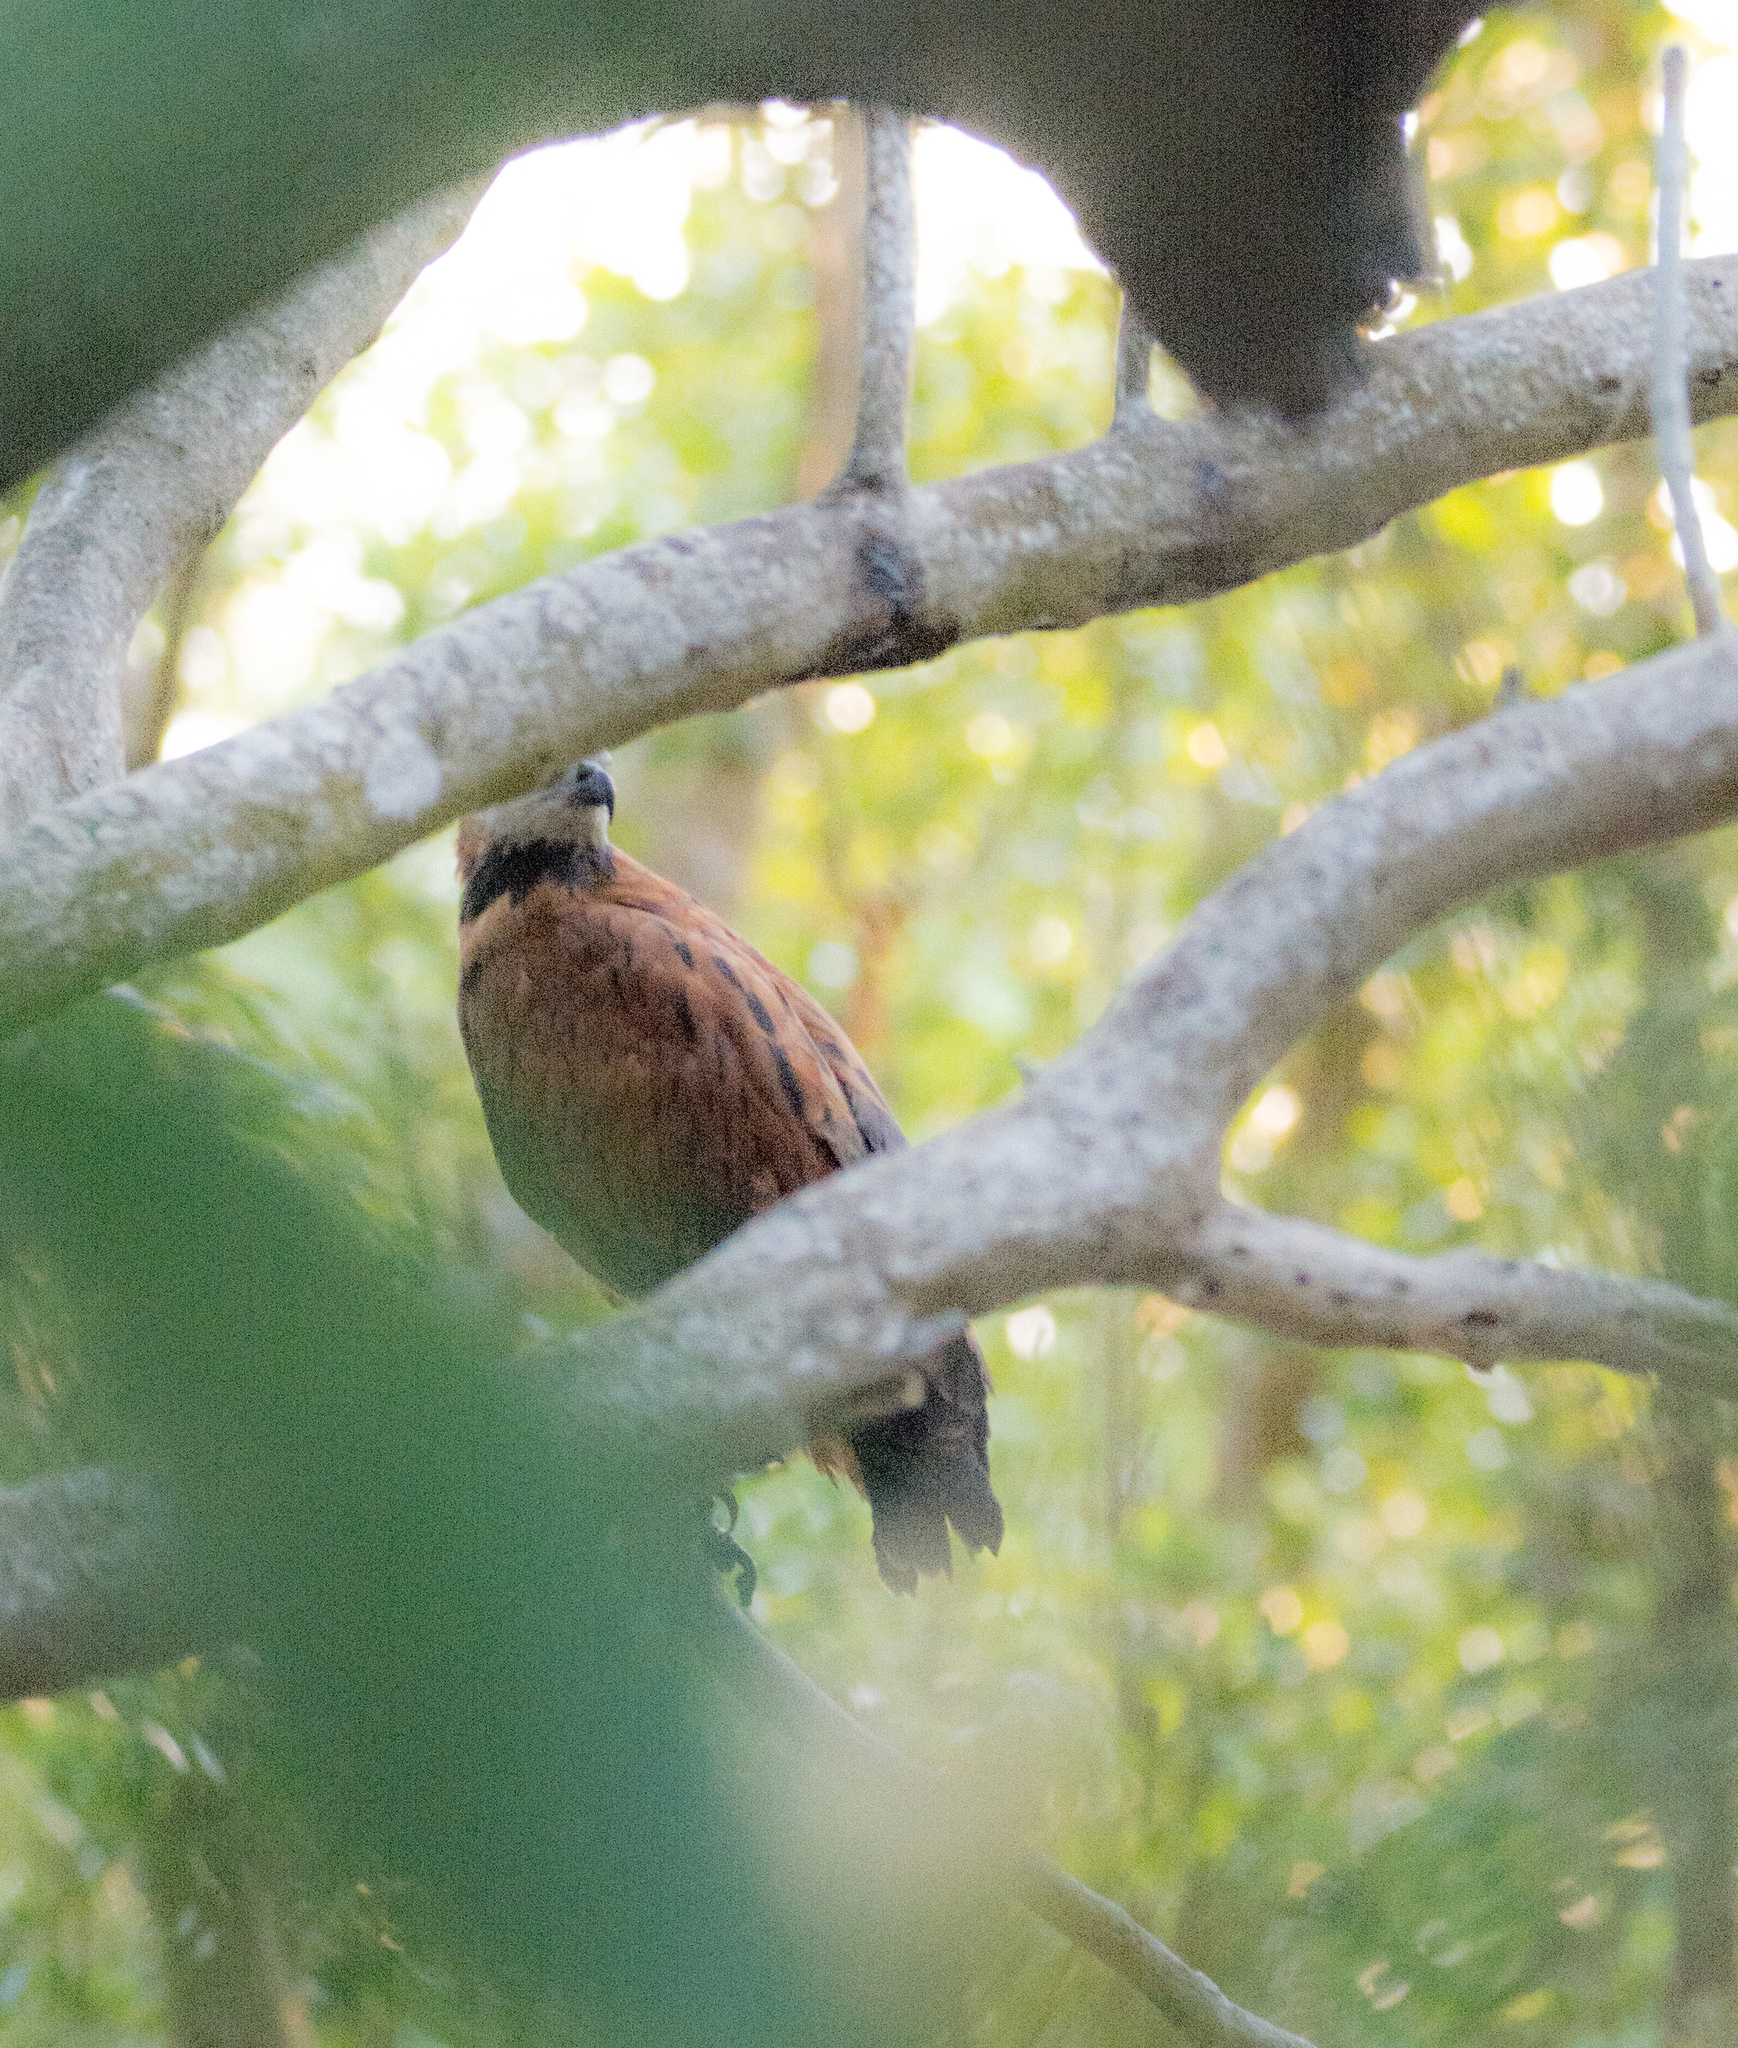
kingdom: Animalia
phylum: Chordata
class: Aves
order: Accipitriformes
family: Accipitridae
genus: Busarellus
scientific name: Busarellus nigricollis
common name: Black-collared hawk
